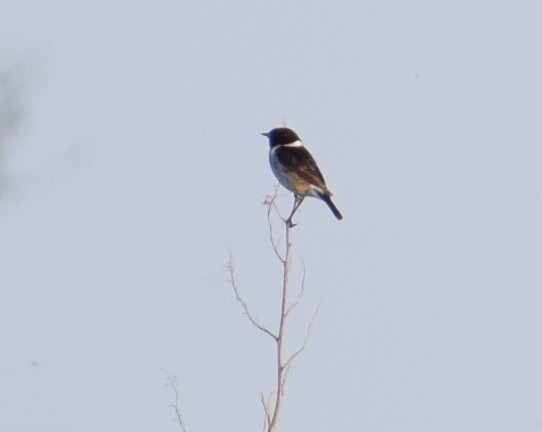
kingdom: Animalia
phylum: Chordata
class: Aves
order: Passeriformes
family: Muscicapidae
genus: Saxicola
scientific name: Saxicola rubicola
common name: European stonechat
